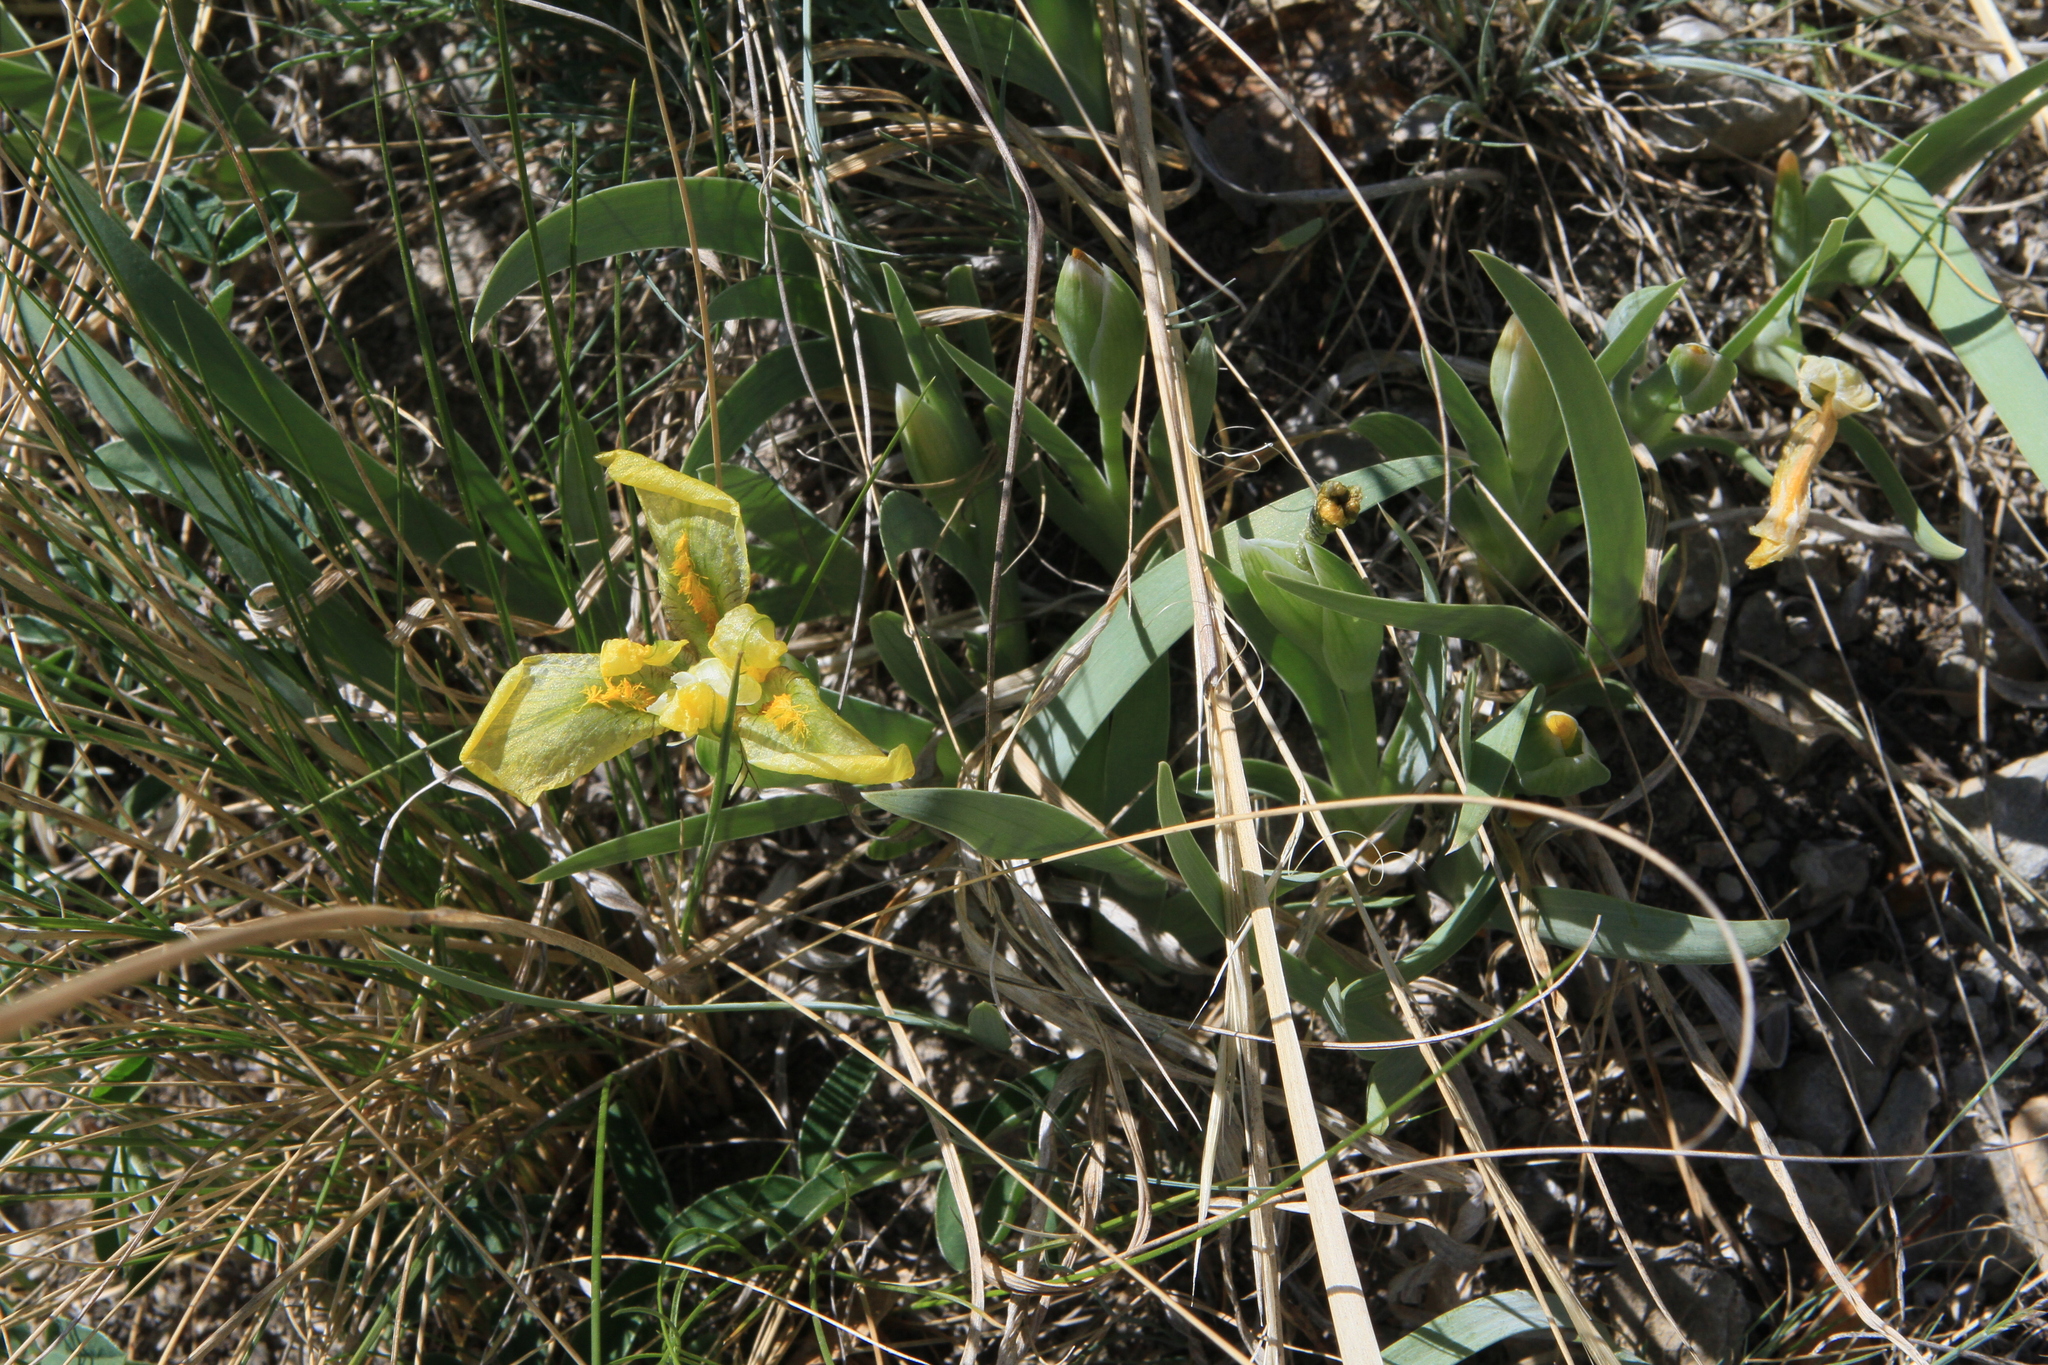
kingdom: Plantae
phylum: Tracheophyta
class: Liliopsida
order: Asparagales
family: Iridaceae
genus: Iris
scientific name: Iris humilis
